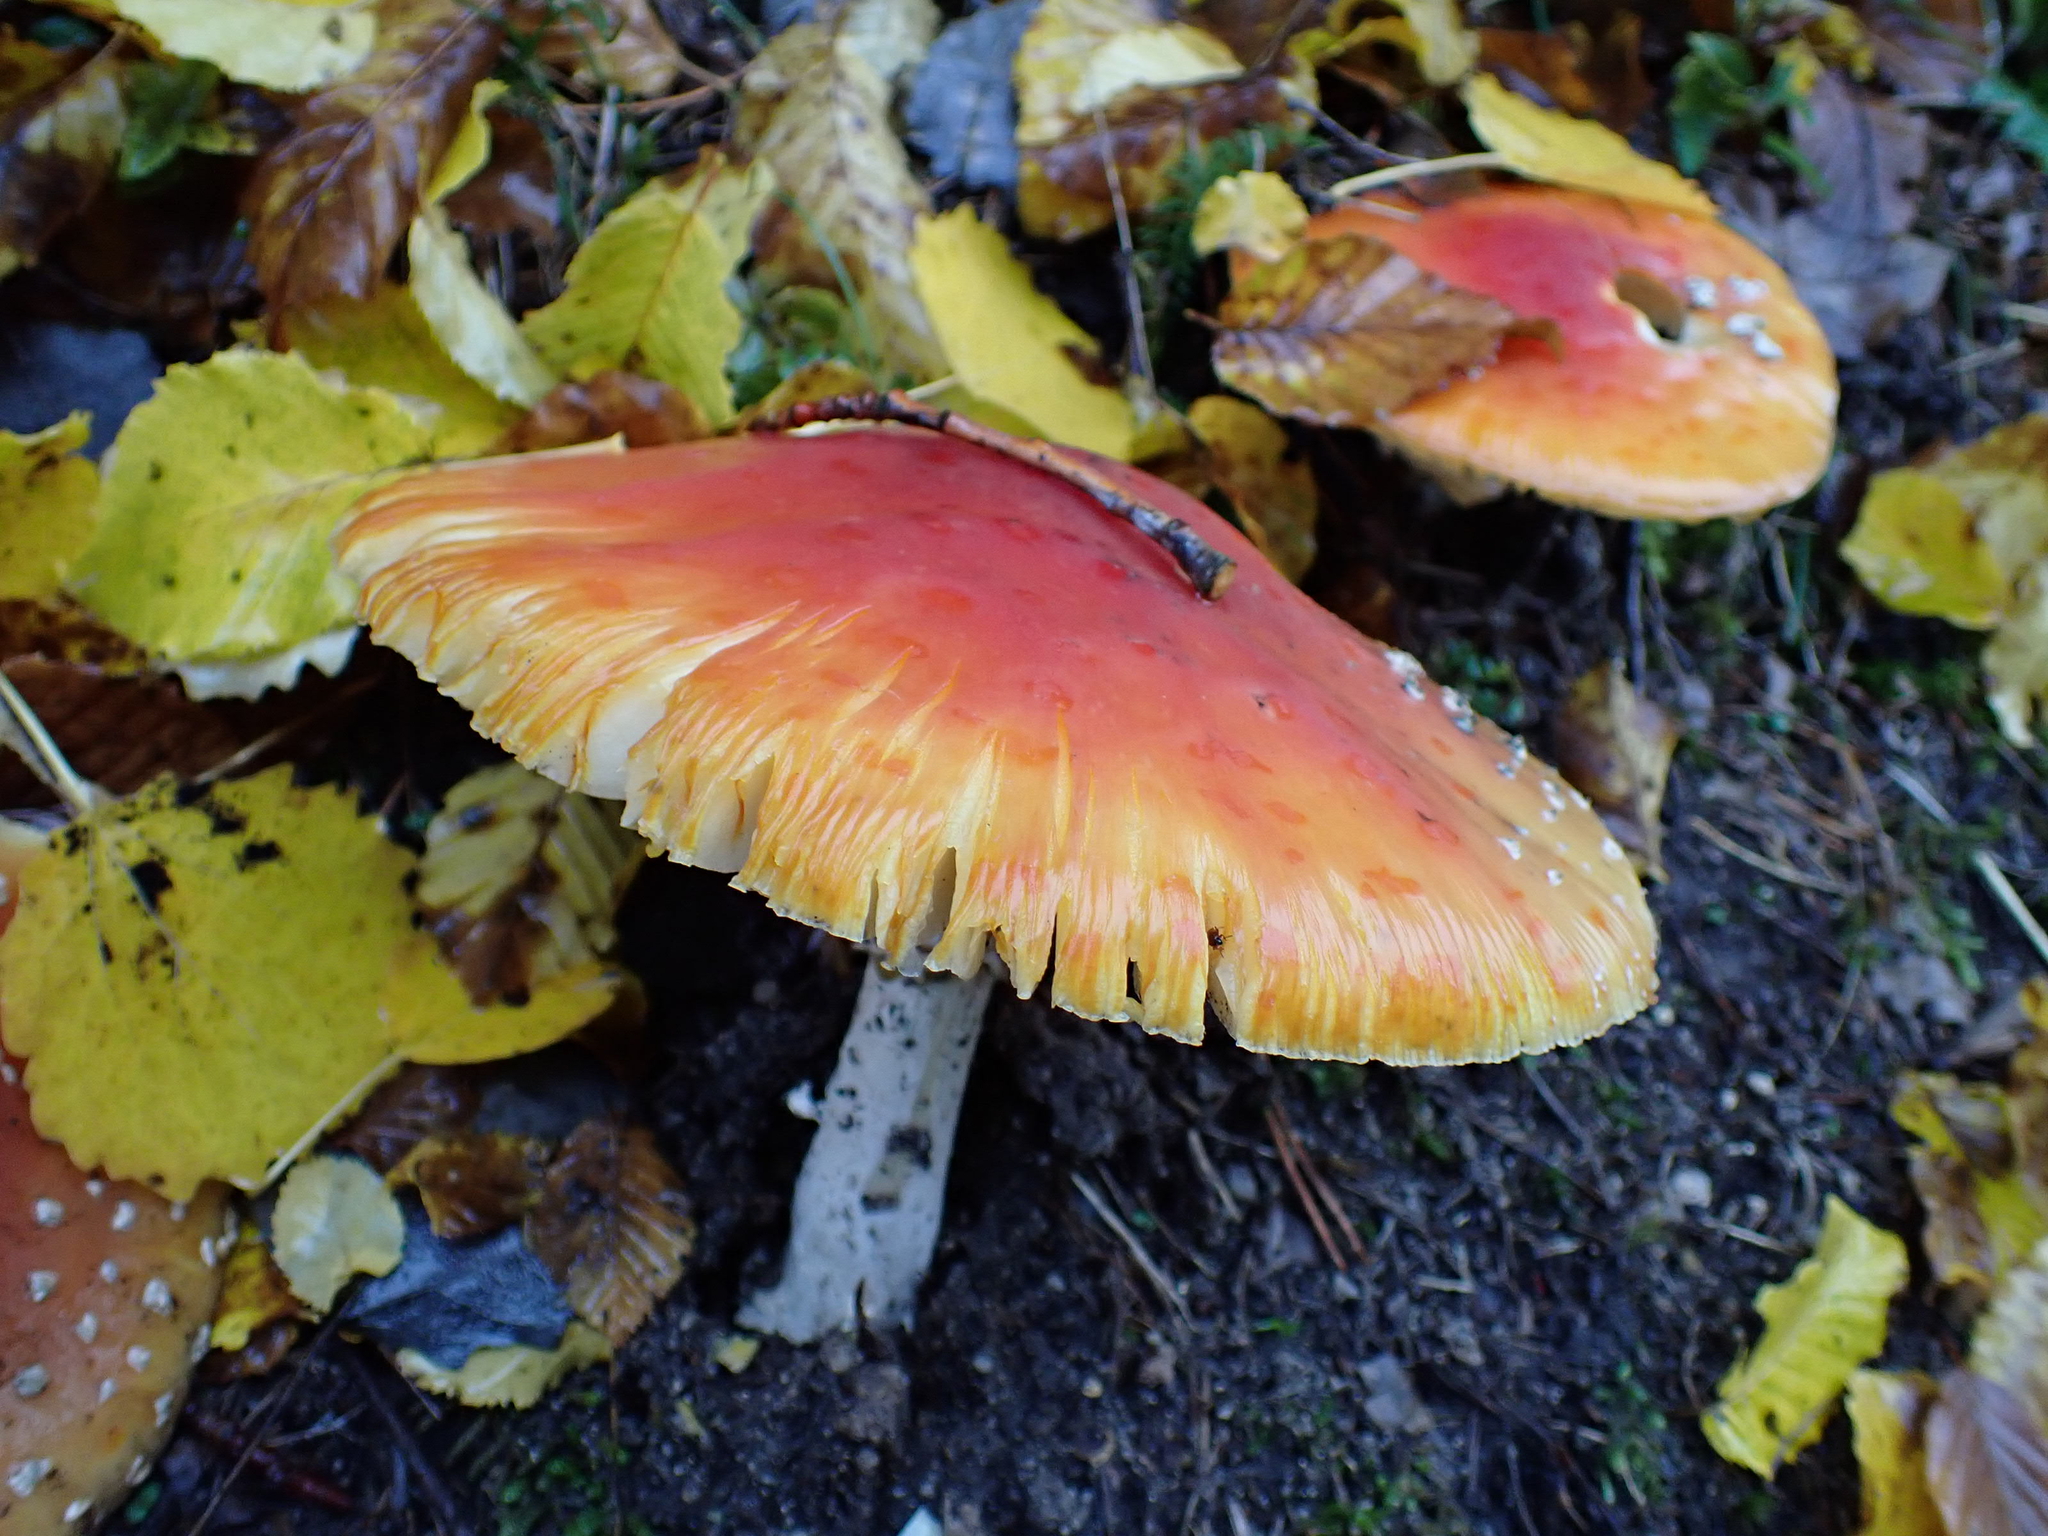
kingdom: Fungi
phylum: Basidiomycota
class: Agaricomycetes
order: Agaricales
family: Amanitaceae
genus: Amanita
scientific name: Amanita muscaria
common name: Fly agaric
